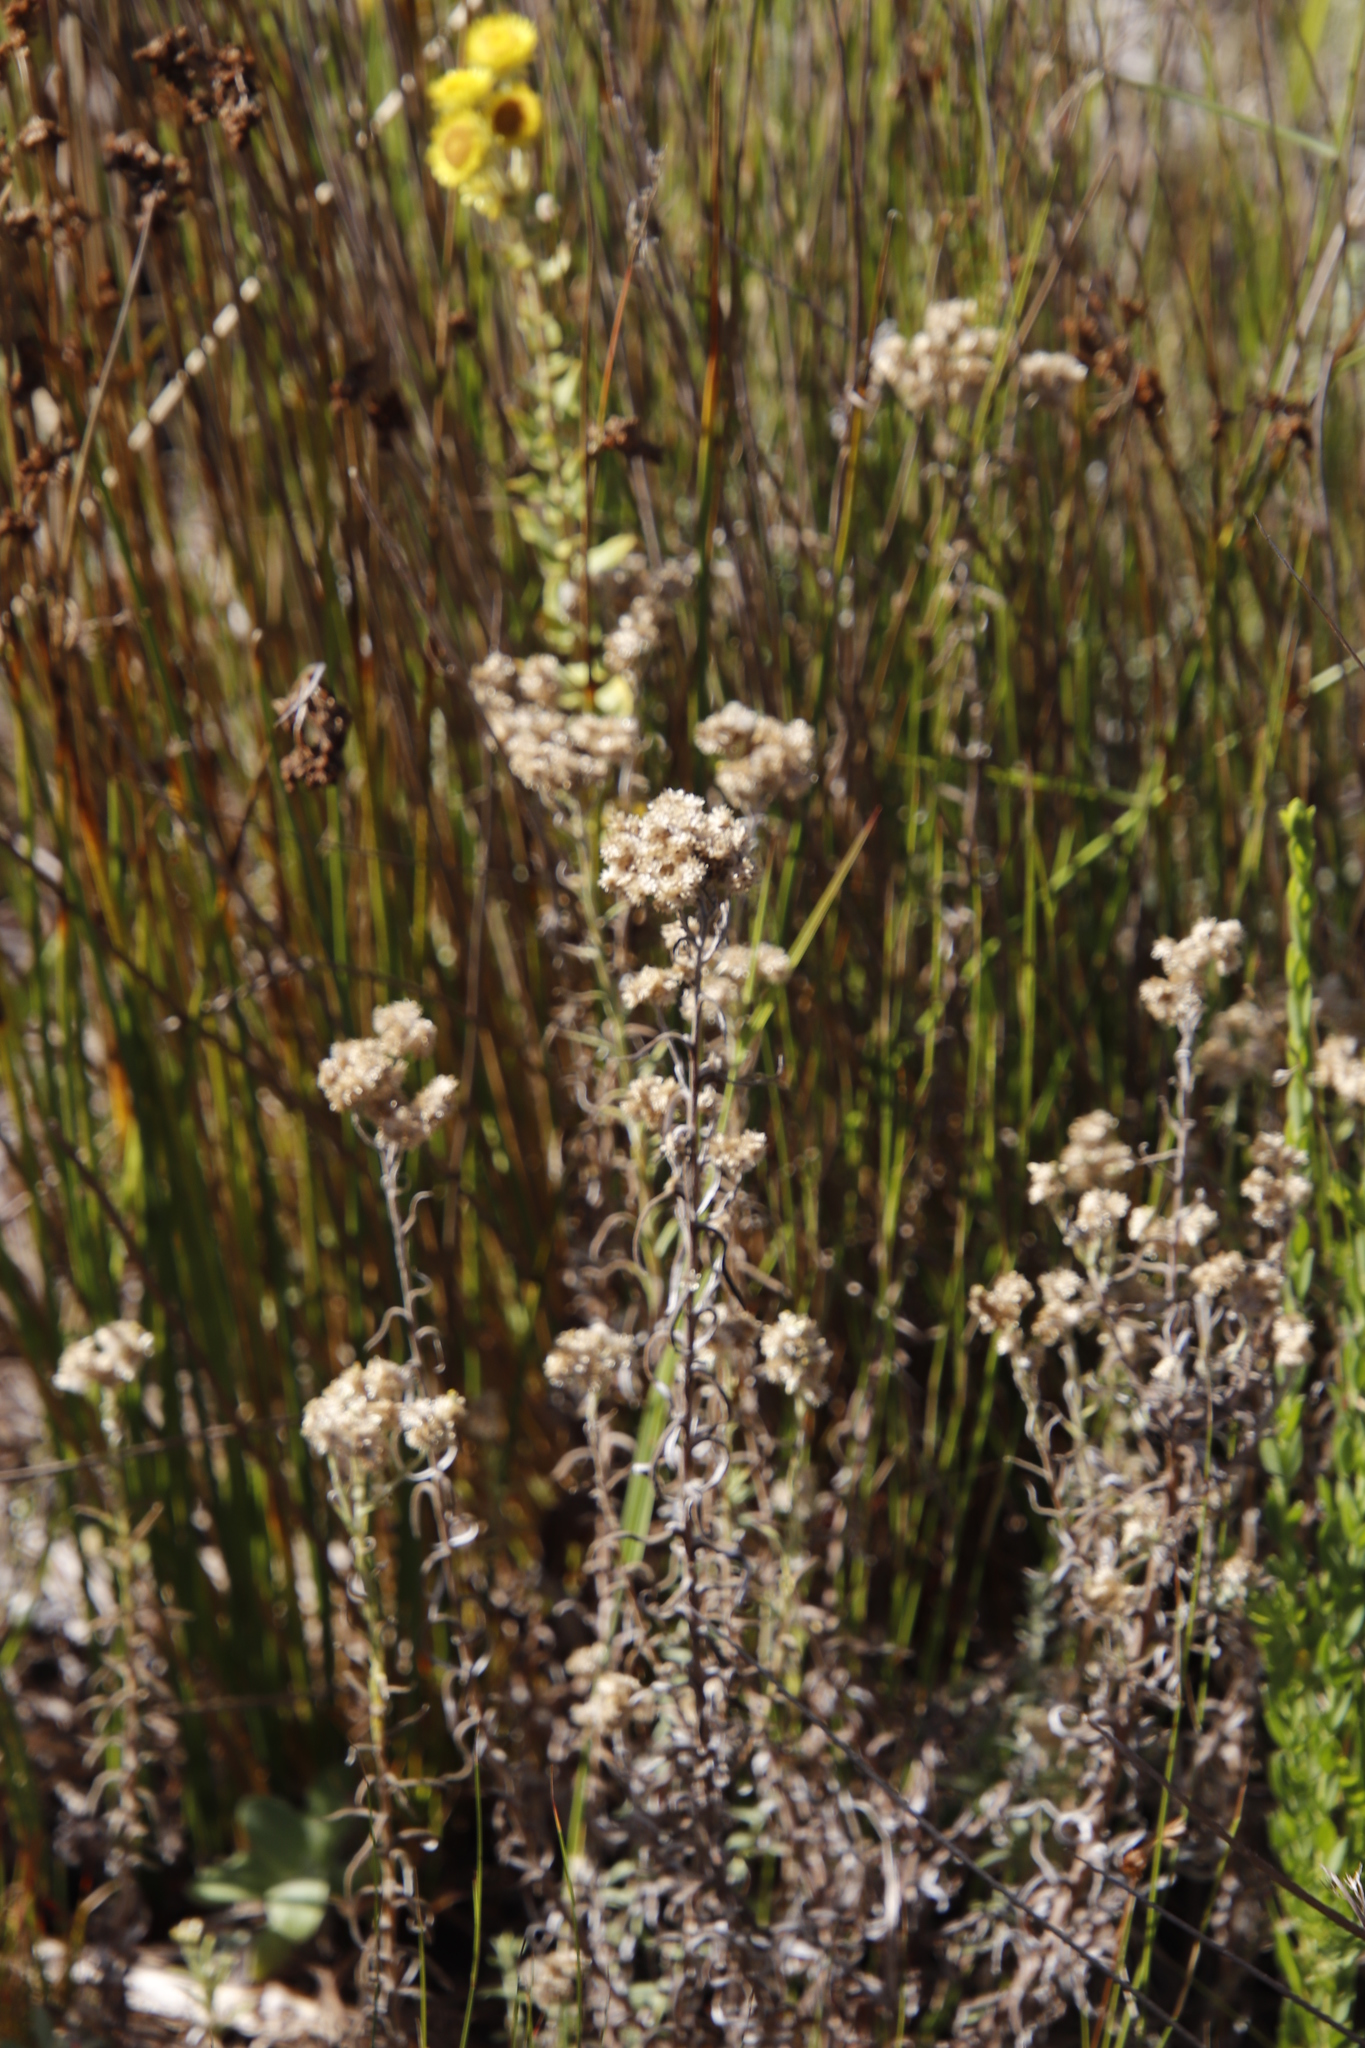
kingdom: Plantae
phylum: Tracheophyta
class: Magnoliopsida
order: Asterales
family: Asteraceae
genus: Helichrysum
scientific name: Helichrysum foetidum
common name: Stinking everlasting
